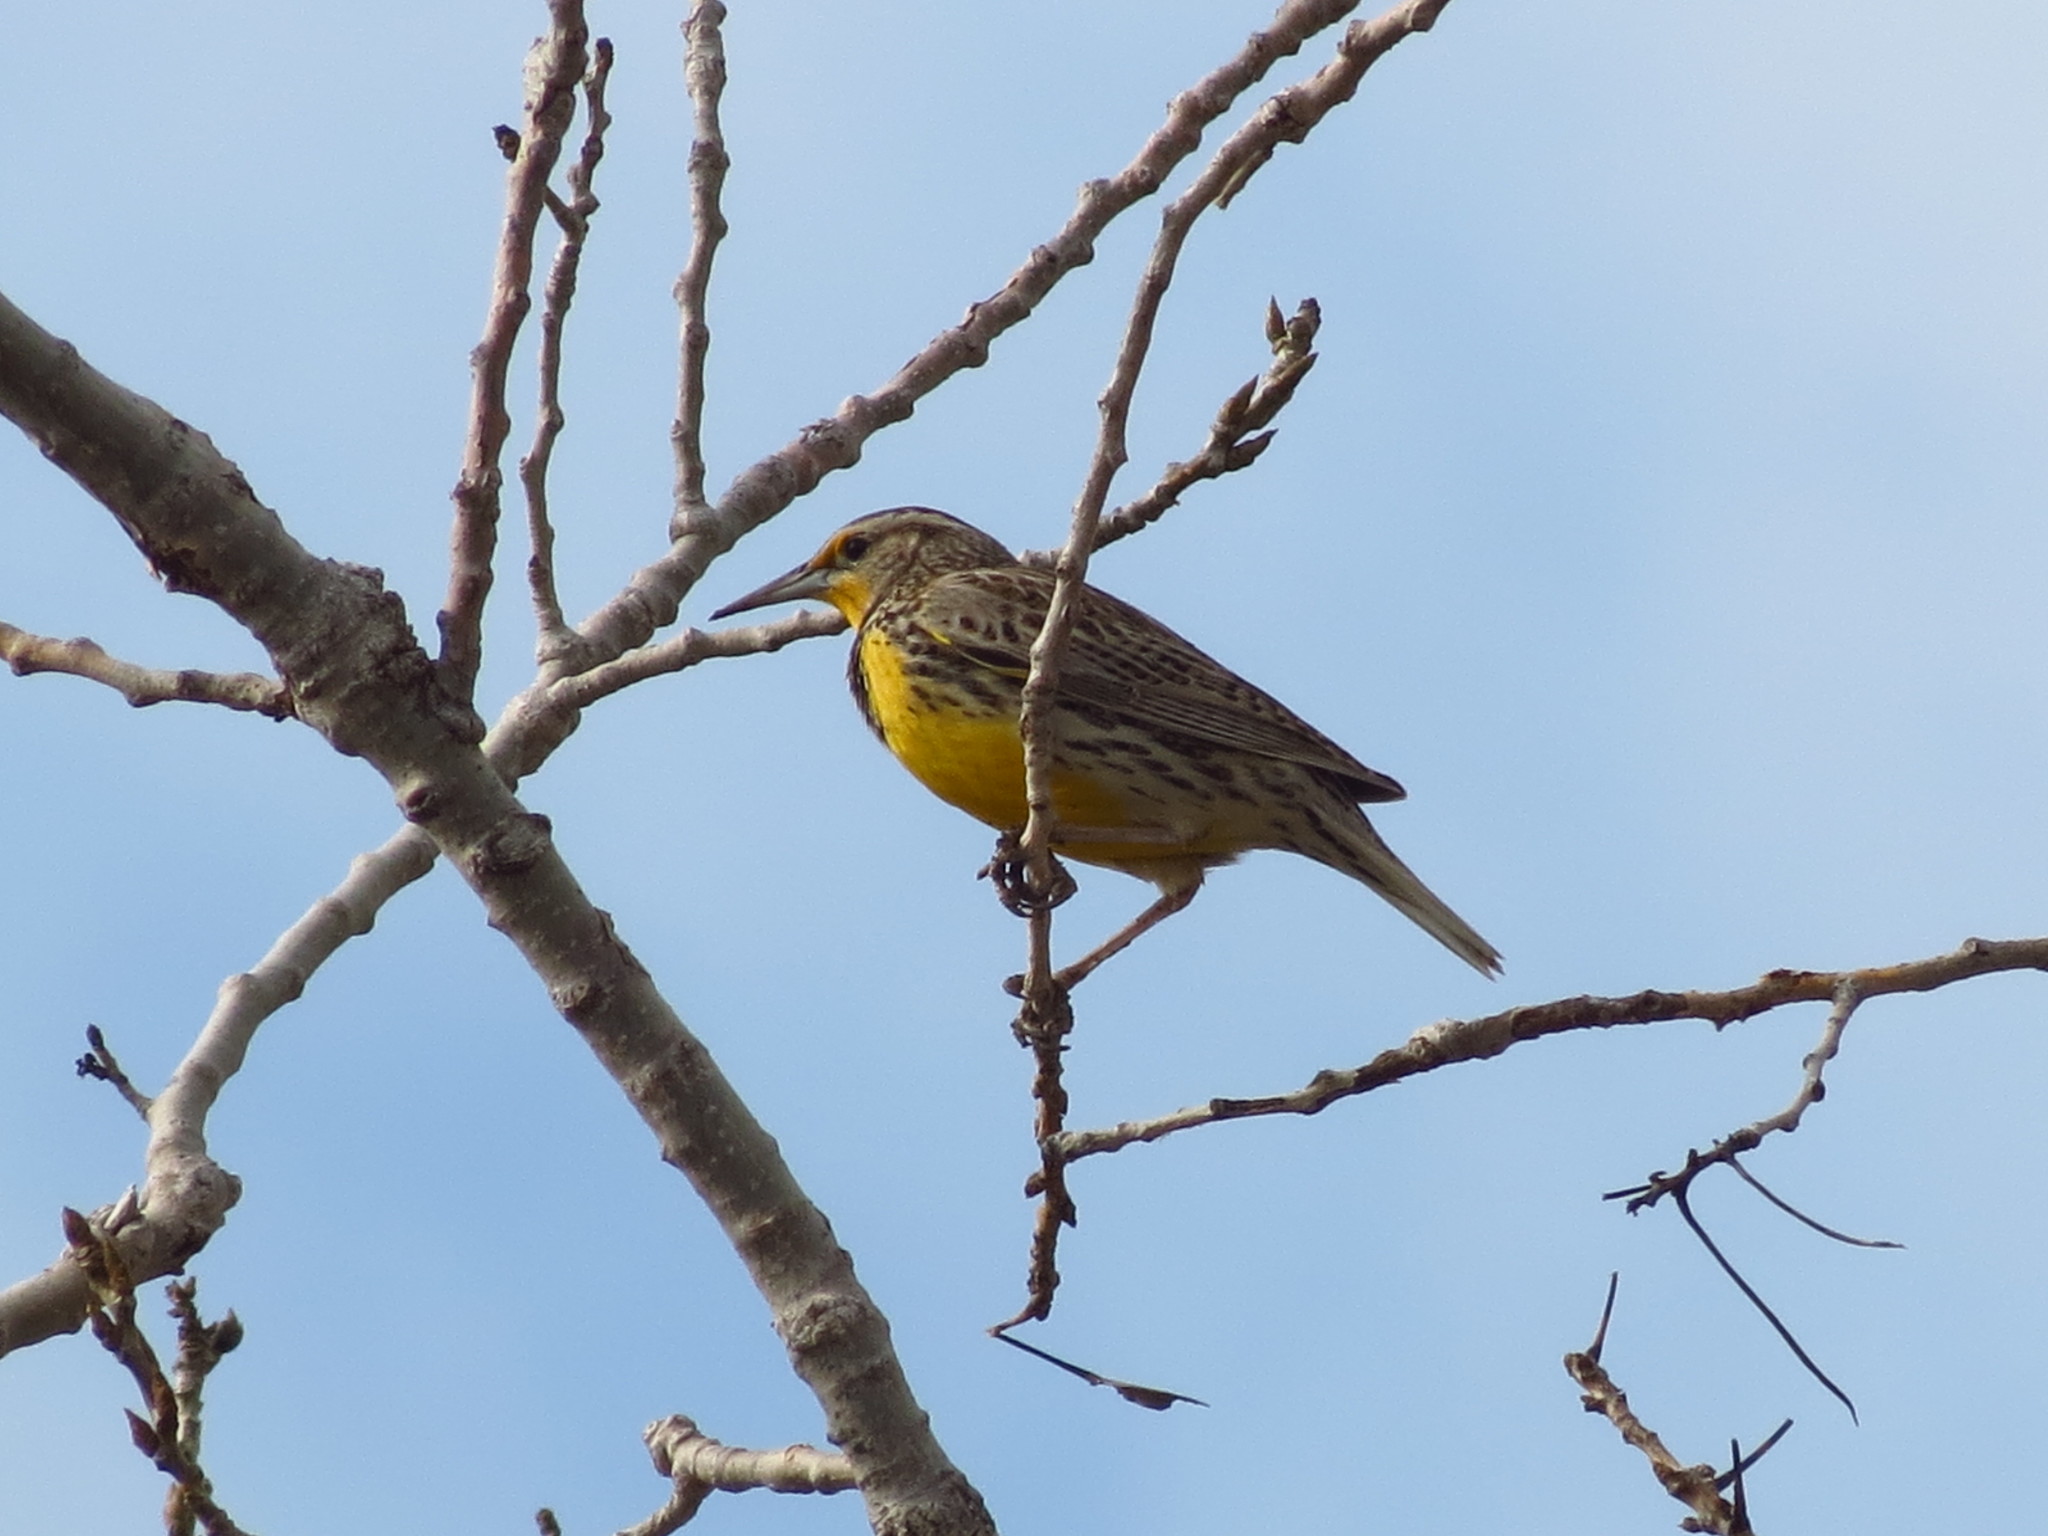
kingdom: Animalia
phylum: Chordata
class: Aves
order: Passeriformes
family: Icteridae
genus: Sturnella
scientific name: Sturnella neglecta
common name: Western meadowlark
